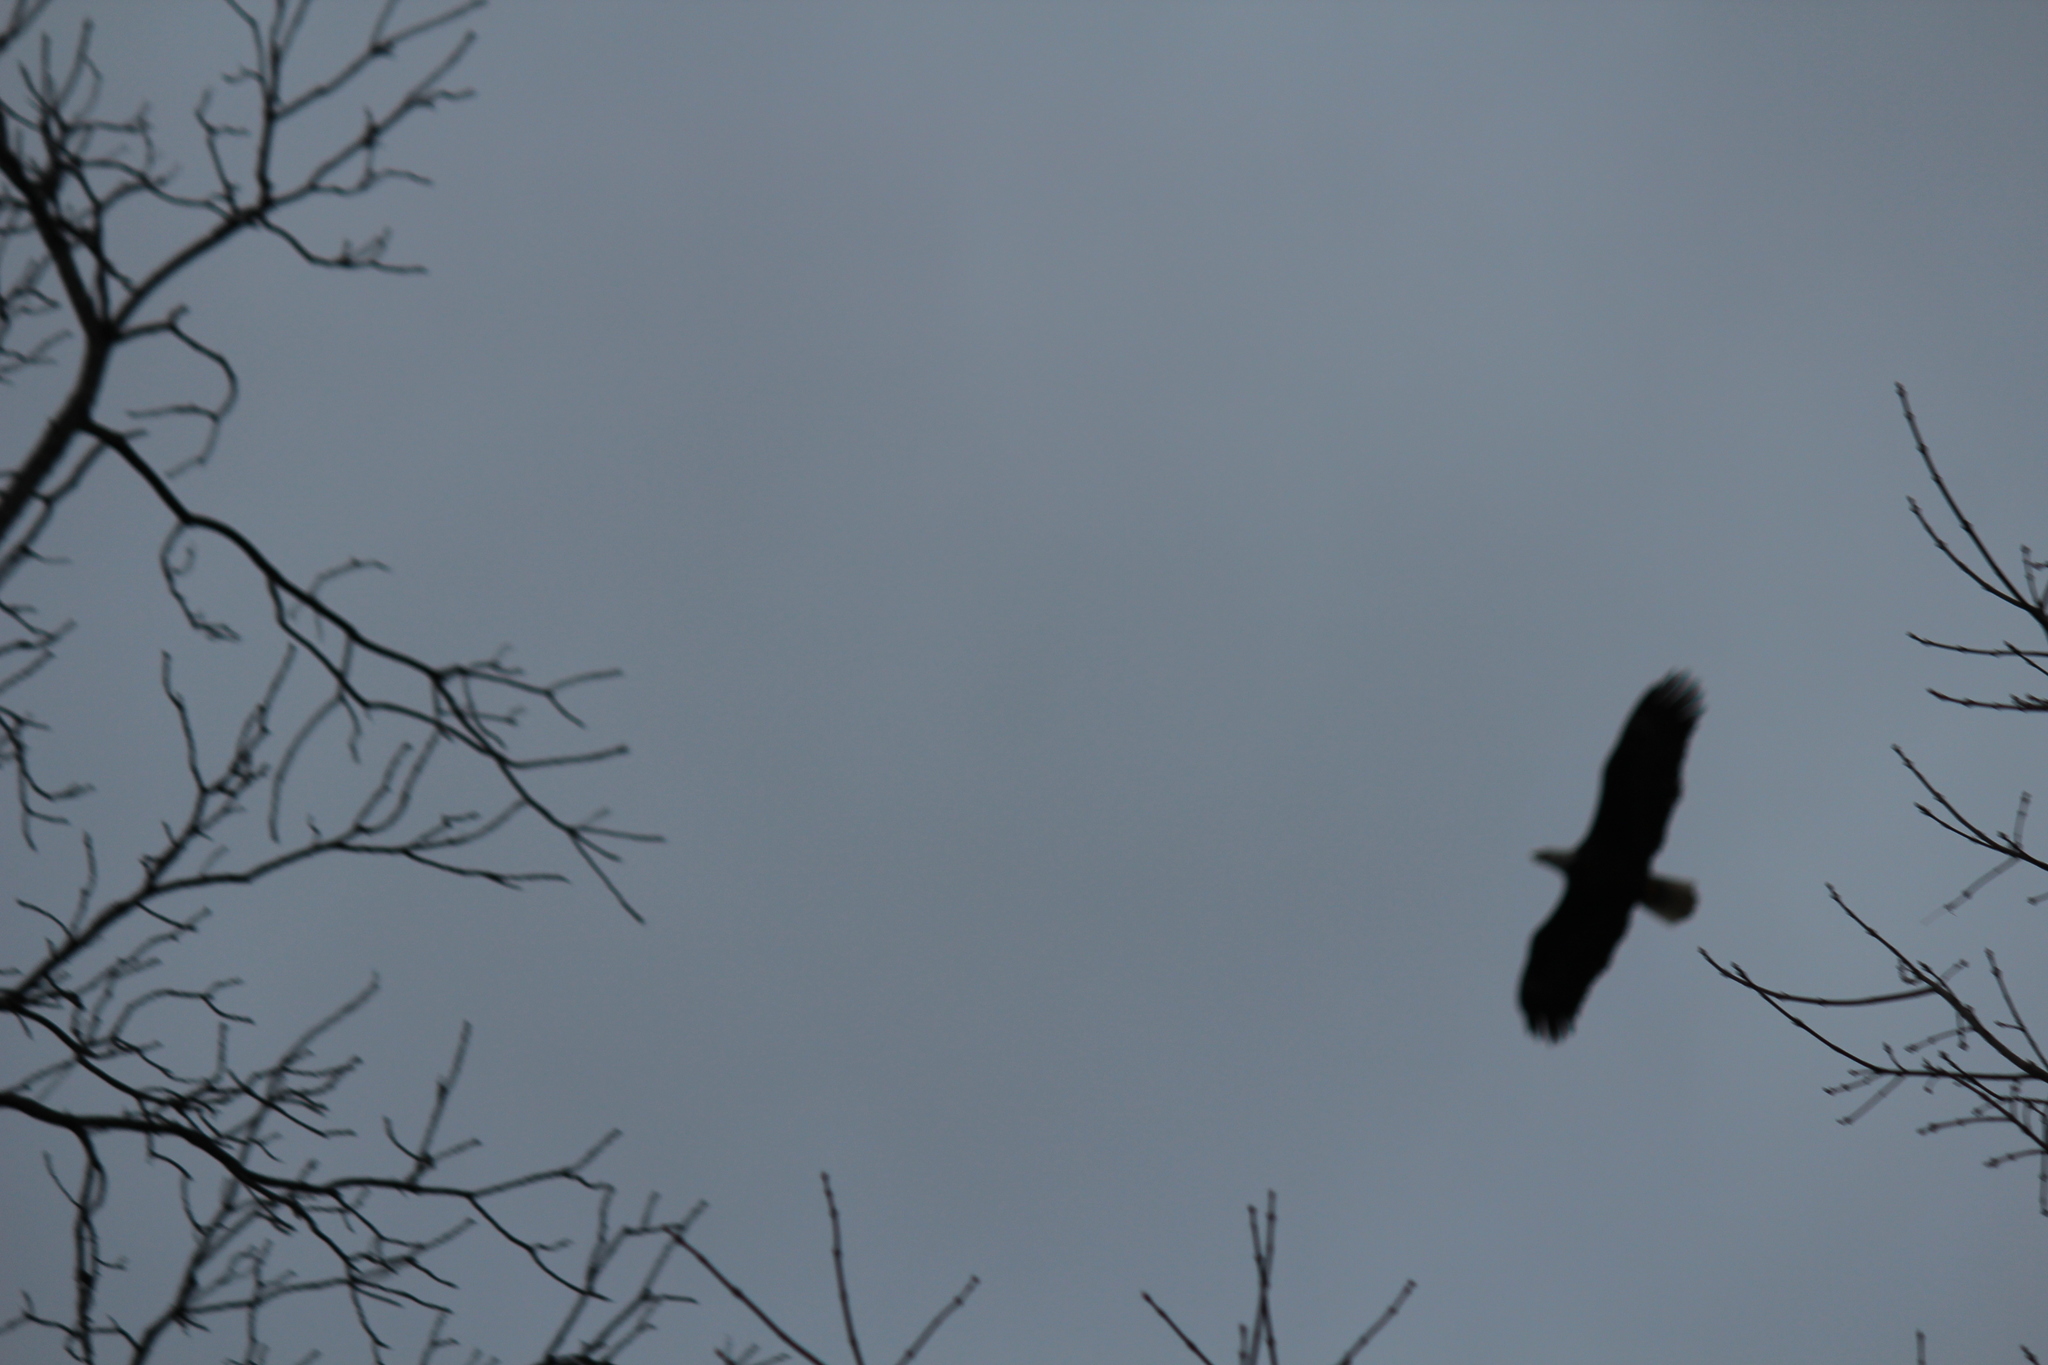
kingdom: Animalia
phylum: Chordata
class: Aves
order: Accipitriformes
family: Accipitridae
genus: Haliaeetus
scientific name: Haliaeetus leucocephalus
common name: Bald eagle
